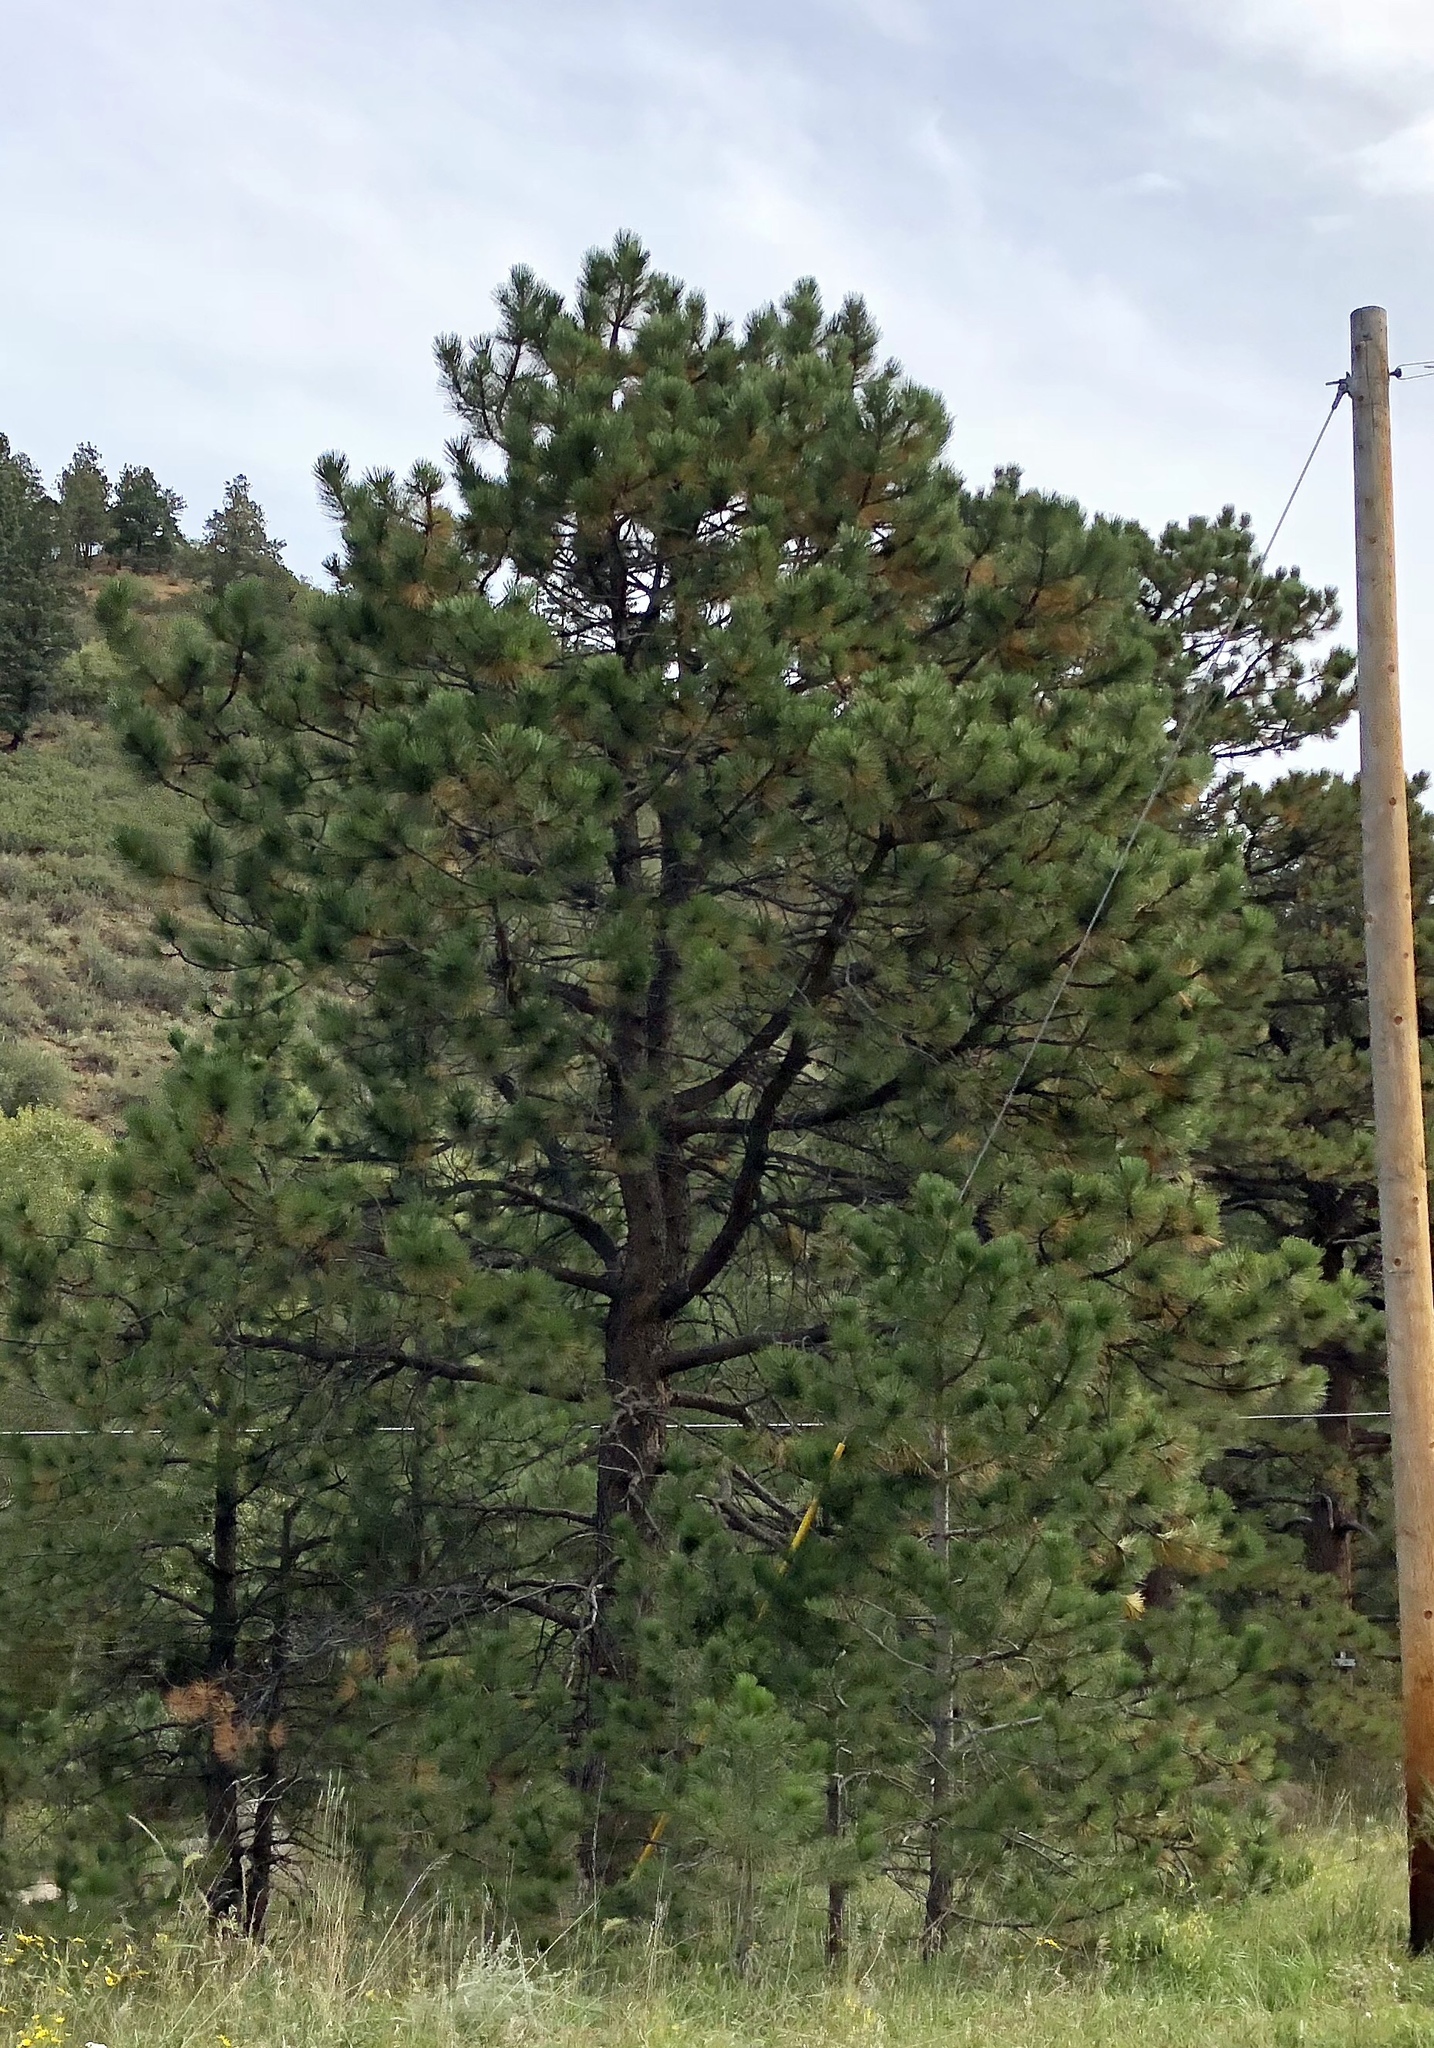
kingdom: Plantae
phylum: Tracheophyta
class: Pinopsida
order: Pinales
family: Pinaceae
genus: Pinus
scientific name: Pinus ponderosa
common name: Western yellow-pine
